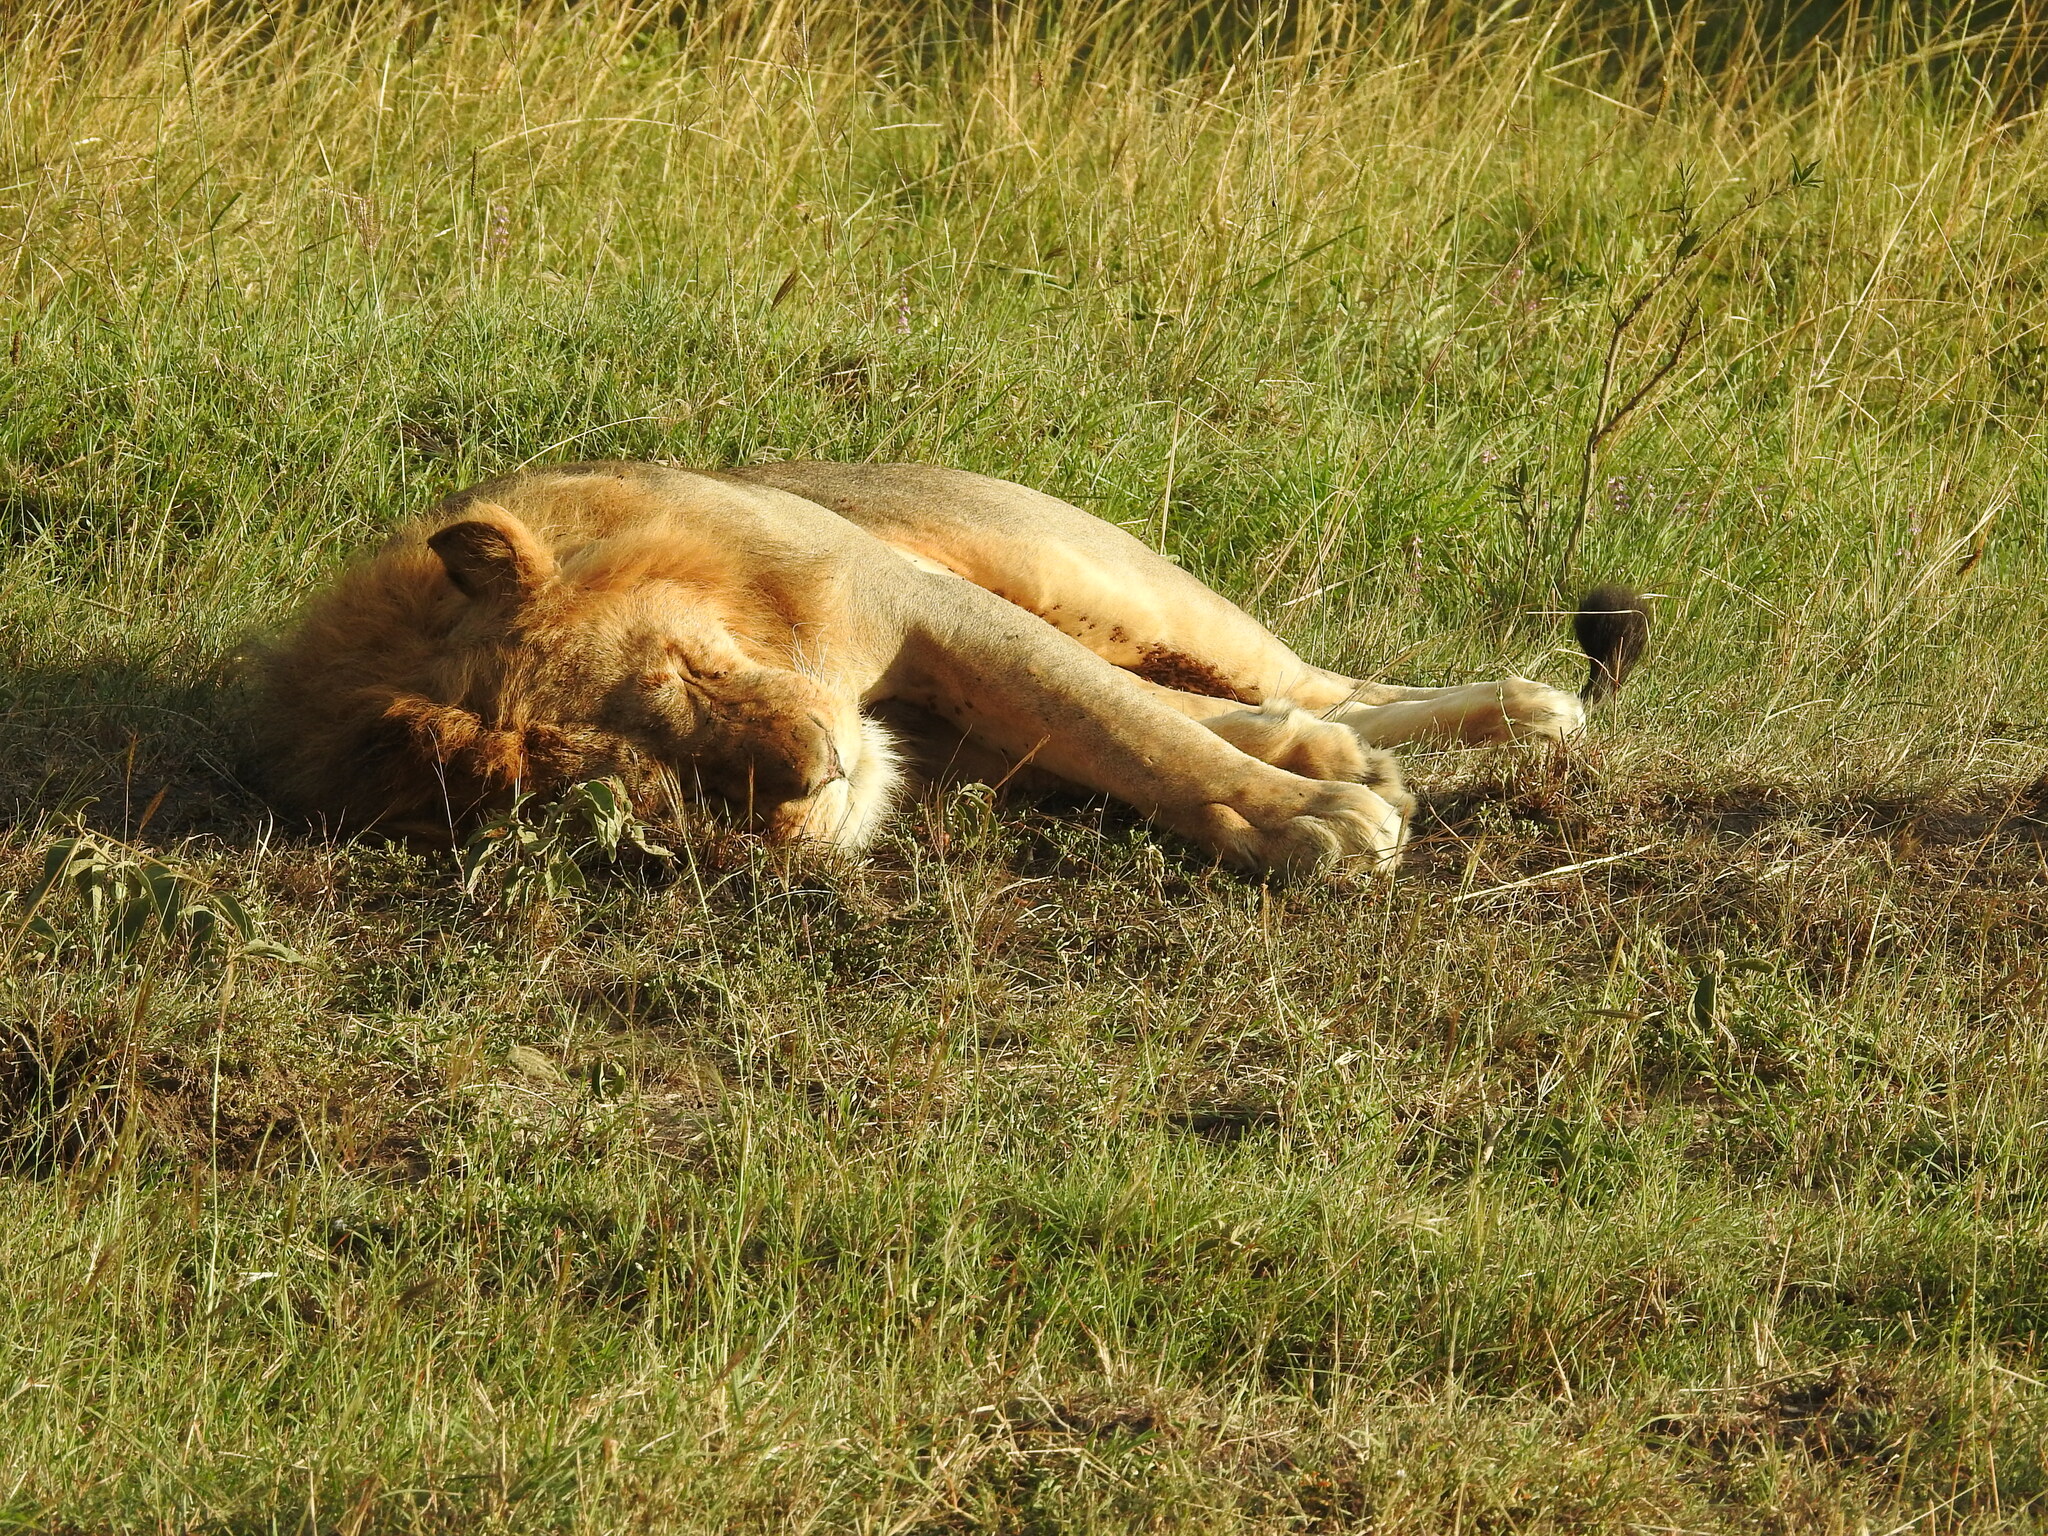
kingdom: Animalia
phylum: Chordata
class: Mammalia
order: Carnivora
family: Felidae
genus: Panthera
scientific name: Panthera leo
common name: Lion
